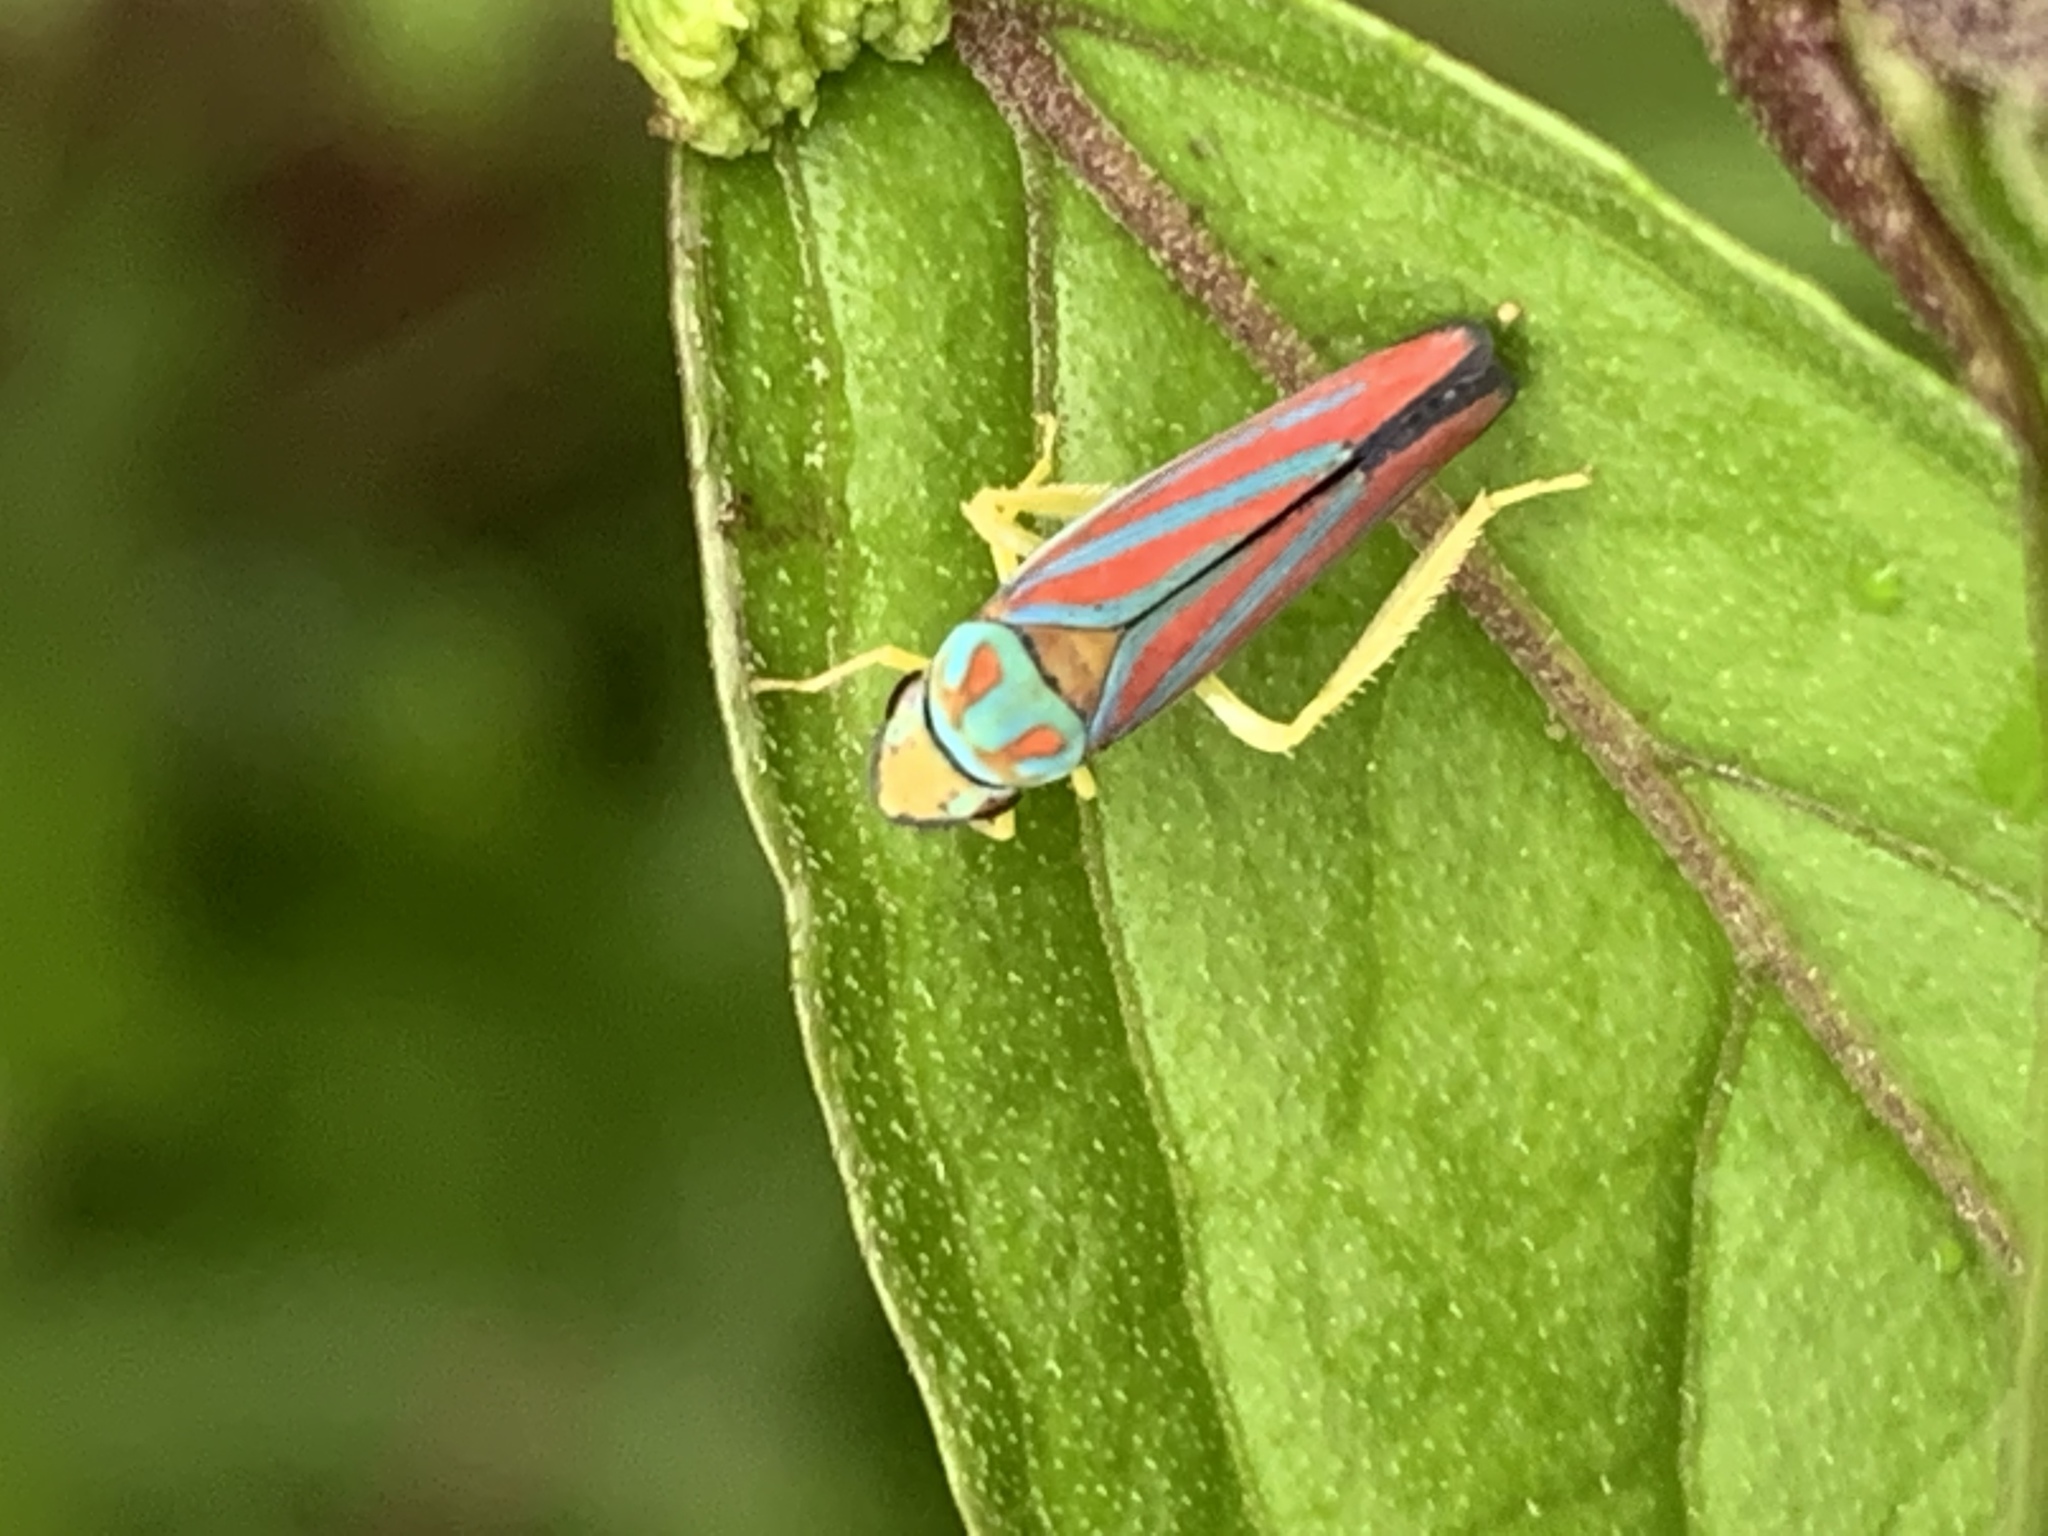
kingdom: Animalia
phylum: Arthropoda
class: Insecta
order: Hemiptera
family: Cicadellidae
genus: Graphocephala
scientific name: Graphocephala coccinea
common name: Candy-striped leafhopper
